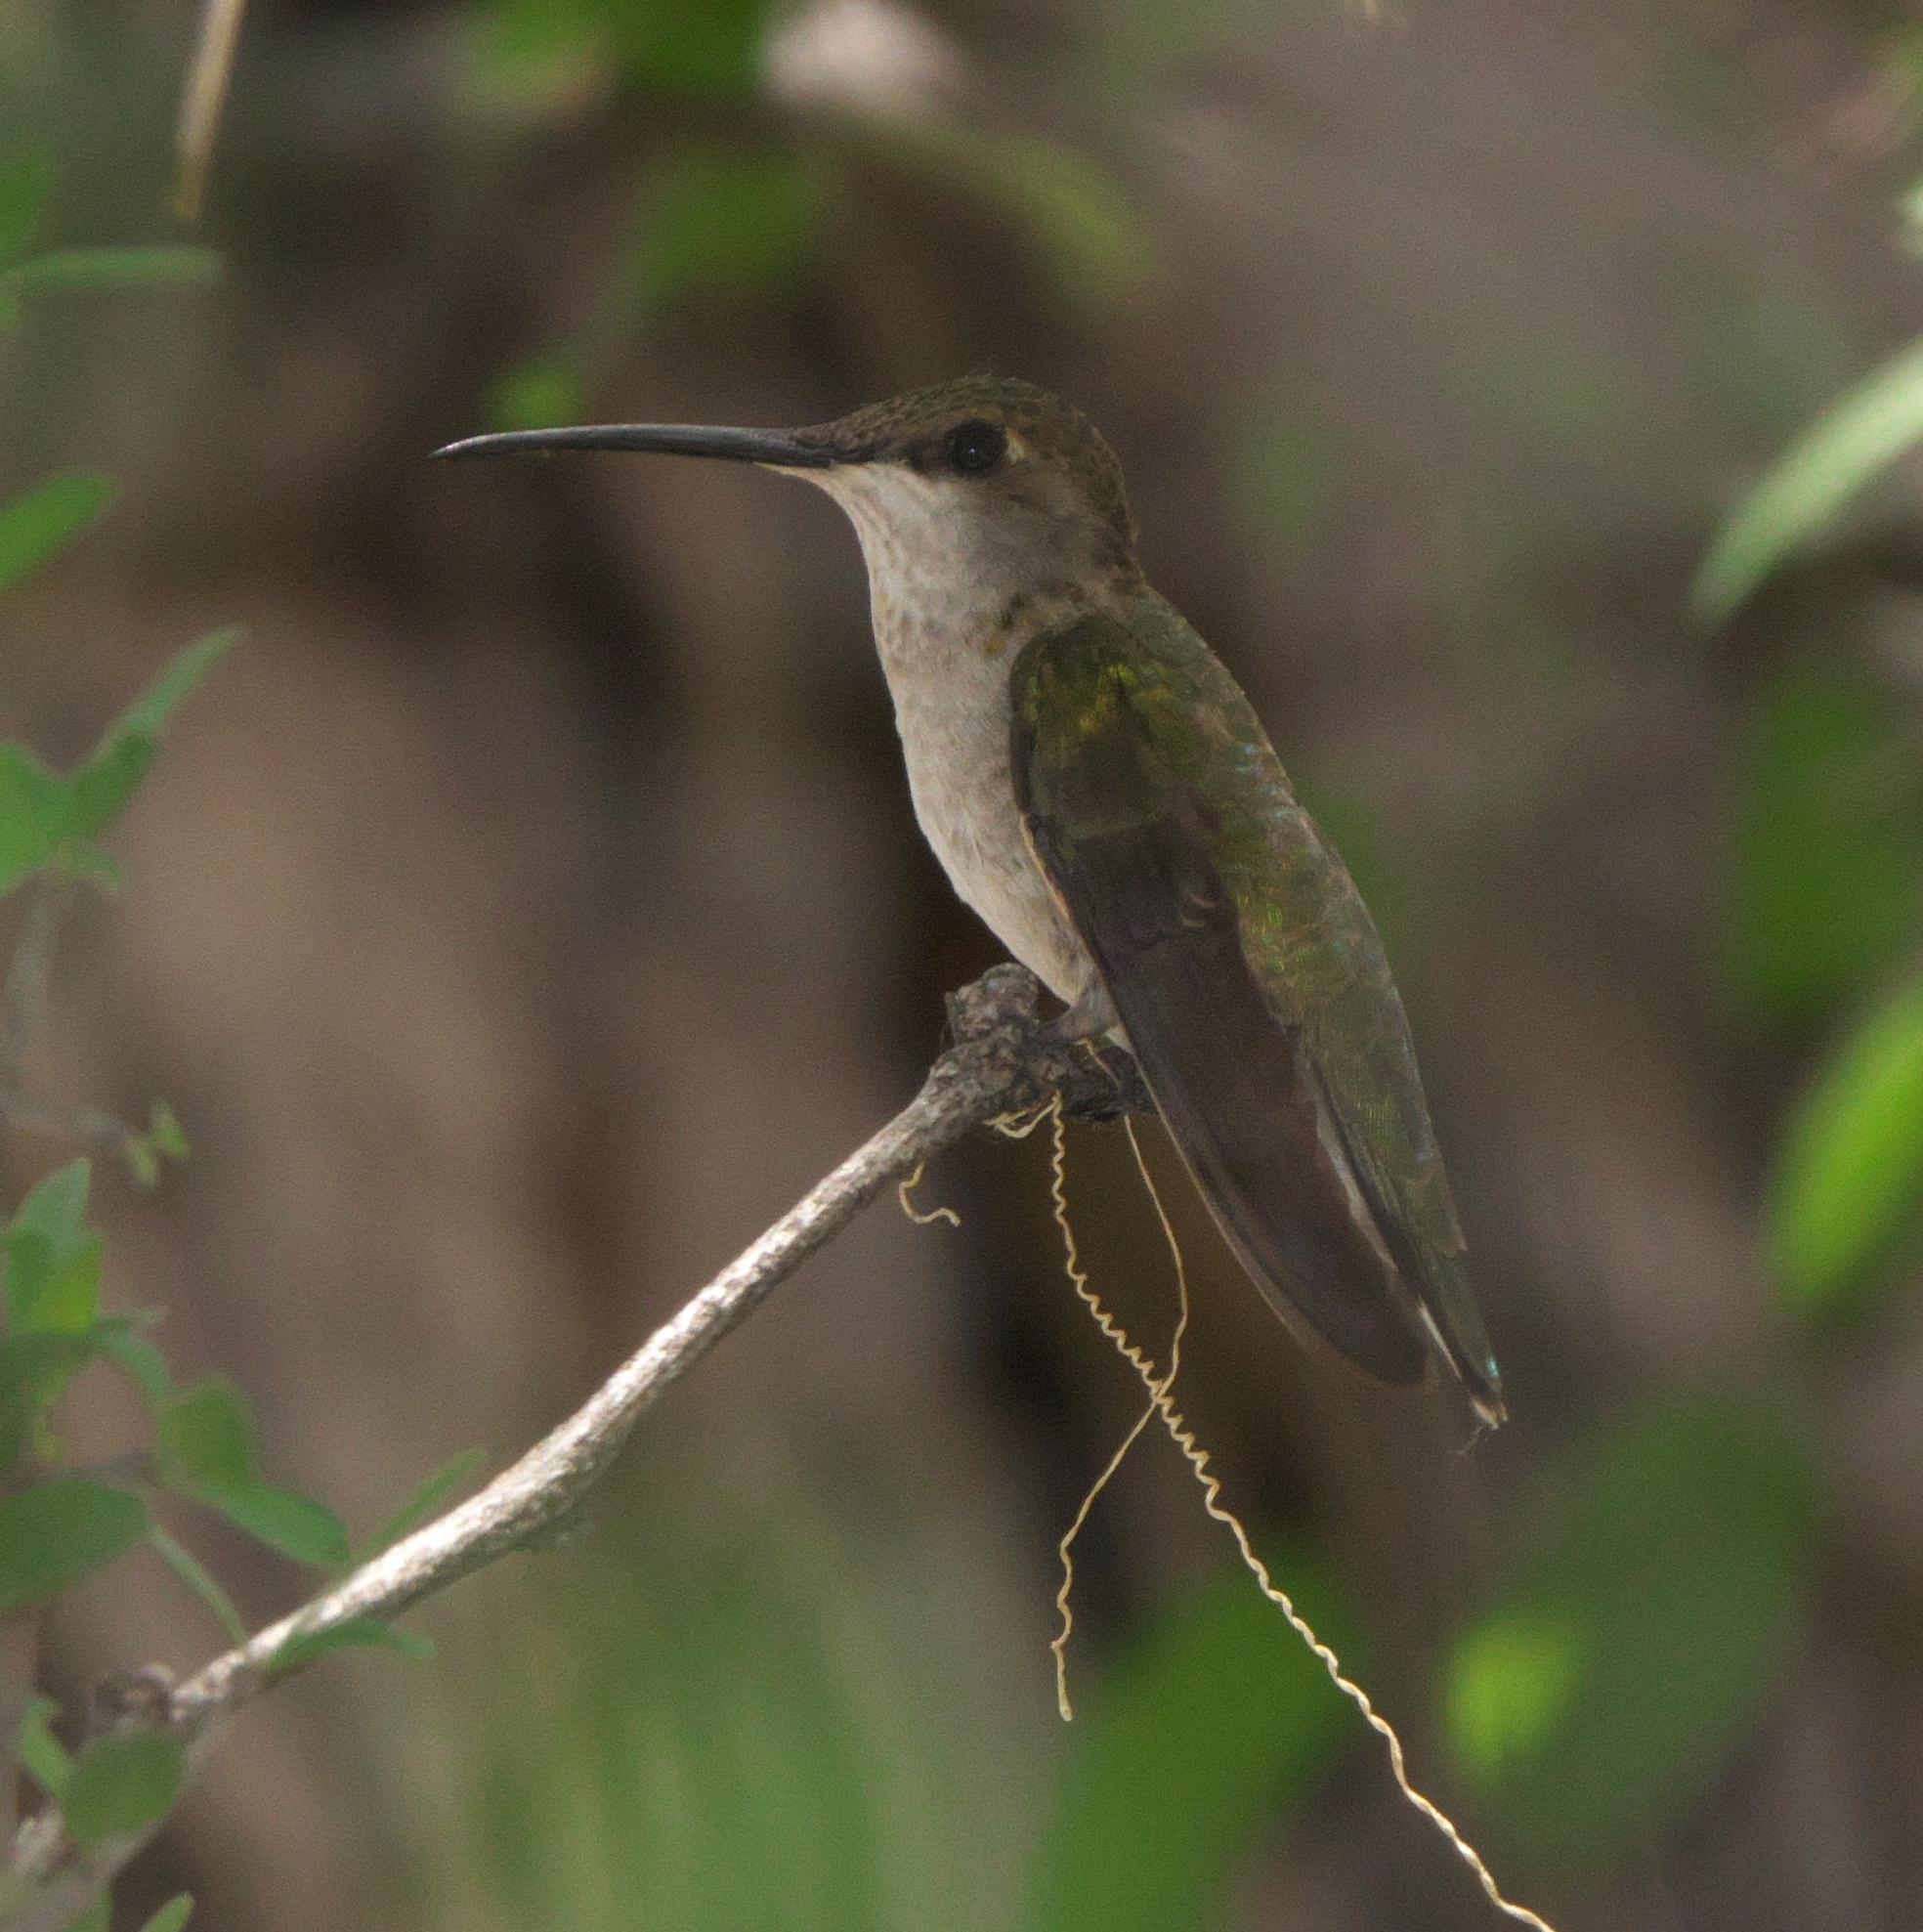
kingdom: Animalia
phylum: Chordata
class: Aves
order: Apodiformes
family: Trochilidae
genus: Archilochus
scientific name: Archilochus alexandri
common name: Black-chinned hummingbird
